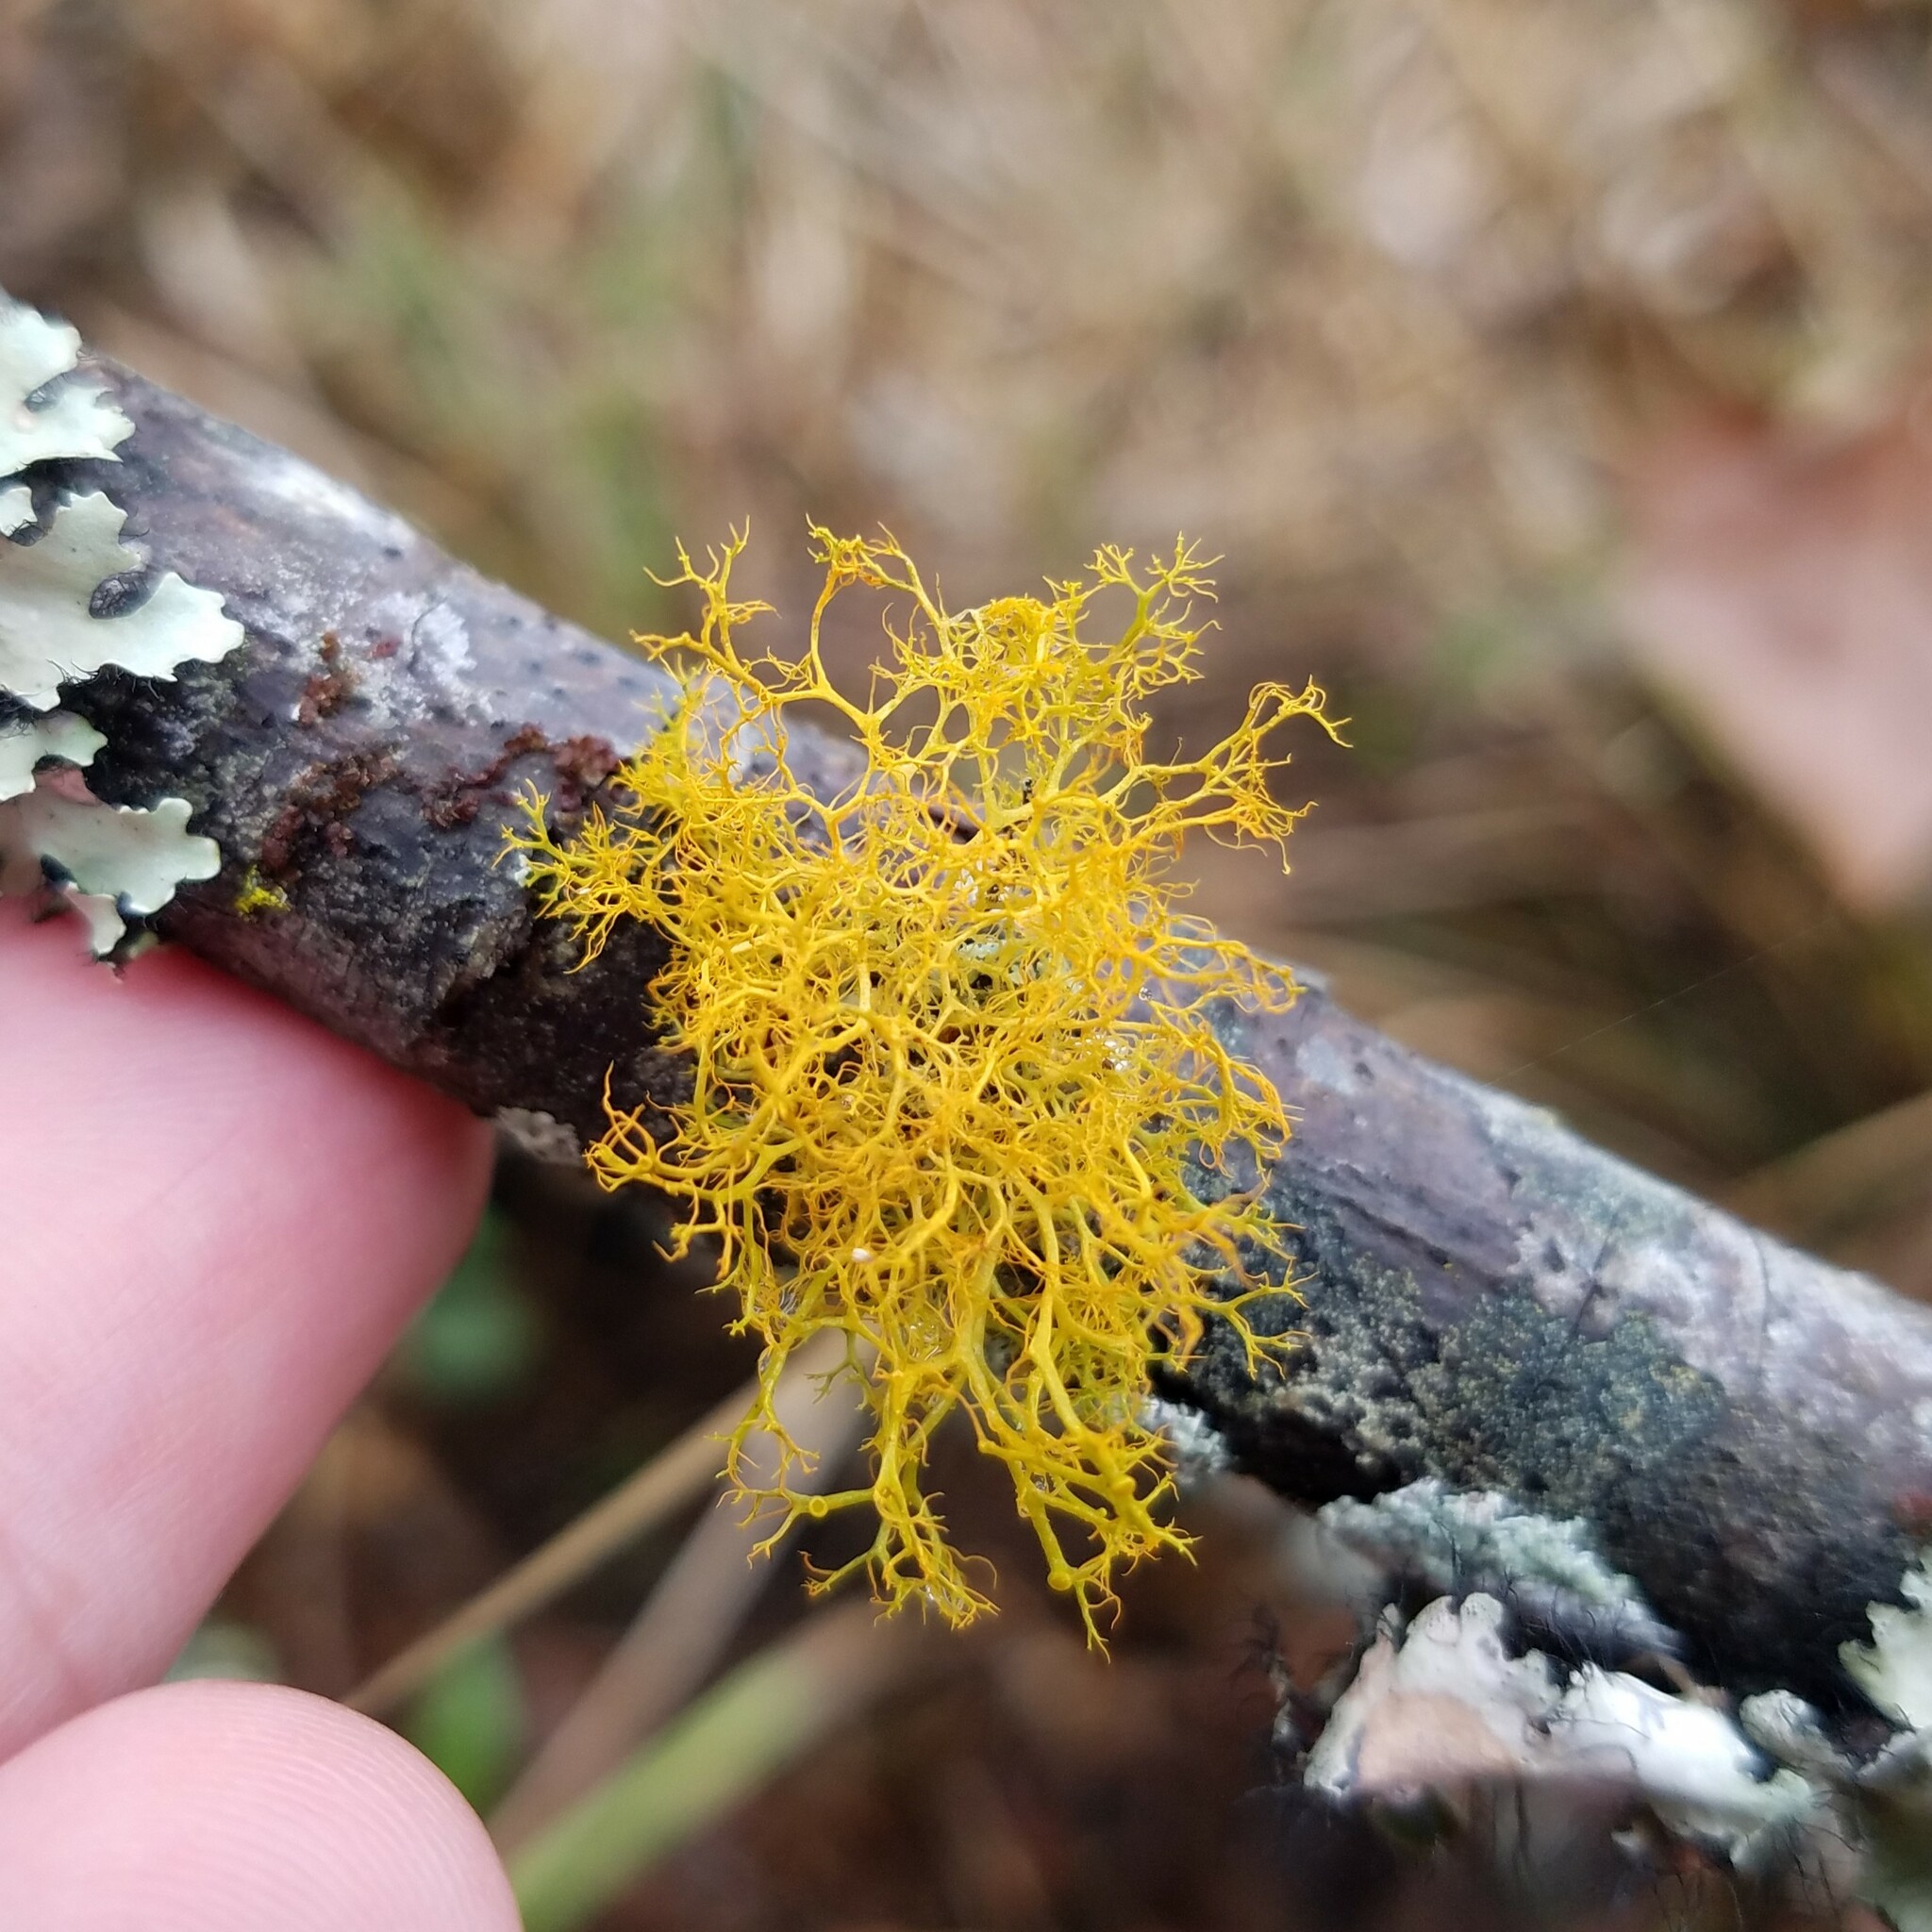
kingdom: Fungi
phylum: Ascomycota
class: Lecanoromycetes
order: Teloschistales
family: Teloschistaceae
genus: Teloschistes
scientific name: Teloschistes exilis
